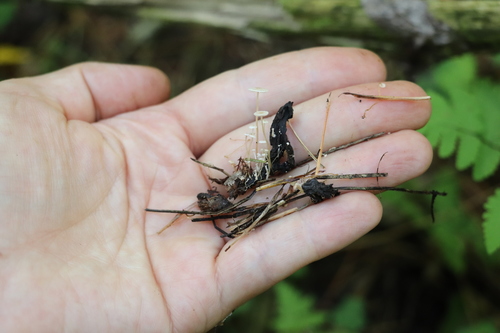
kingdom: Fungi
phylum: Basidiomycota
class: Agaricomycetes
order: Agaricales
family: Tricholomataceae
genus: Collybia
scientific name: Collybia cirrhata
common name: Piggyback shanklet
